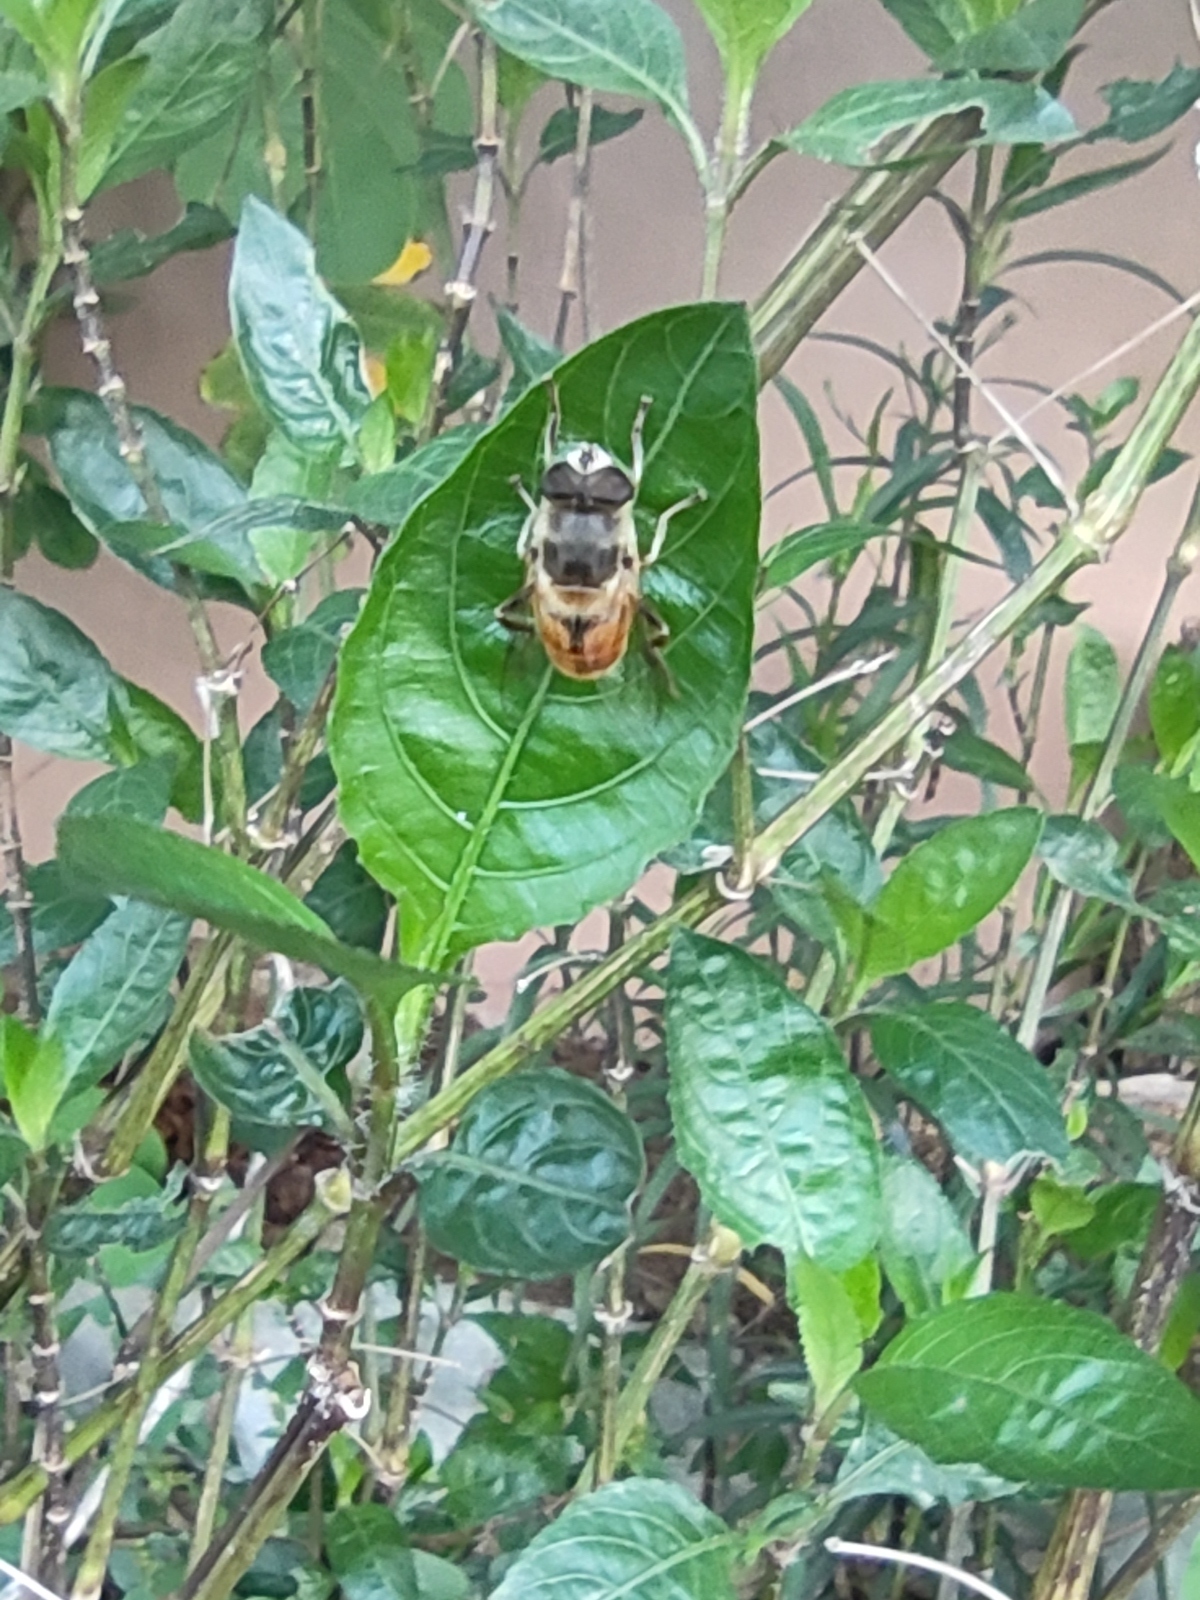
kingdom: Animalia
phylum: Arthropoda
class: Insecta
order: Diptera
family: Syrphidae
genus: Eristalis
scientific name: Eristalis tenax
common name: Drone fly
